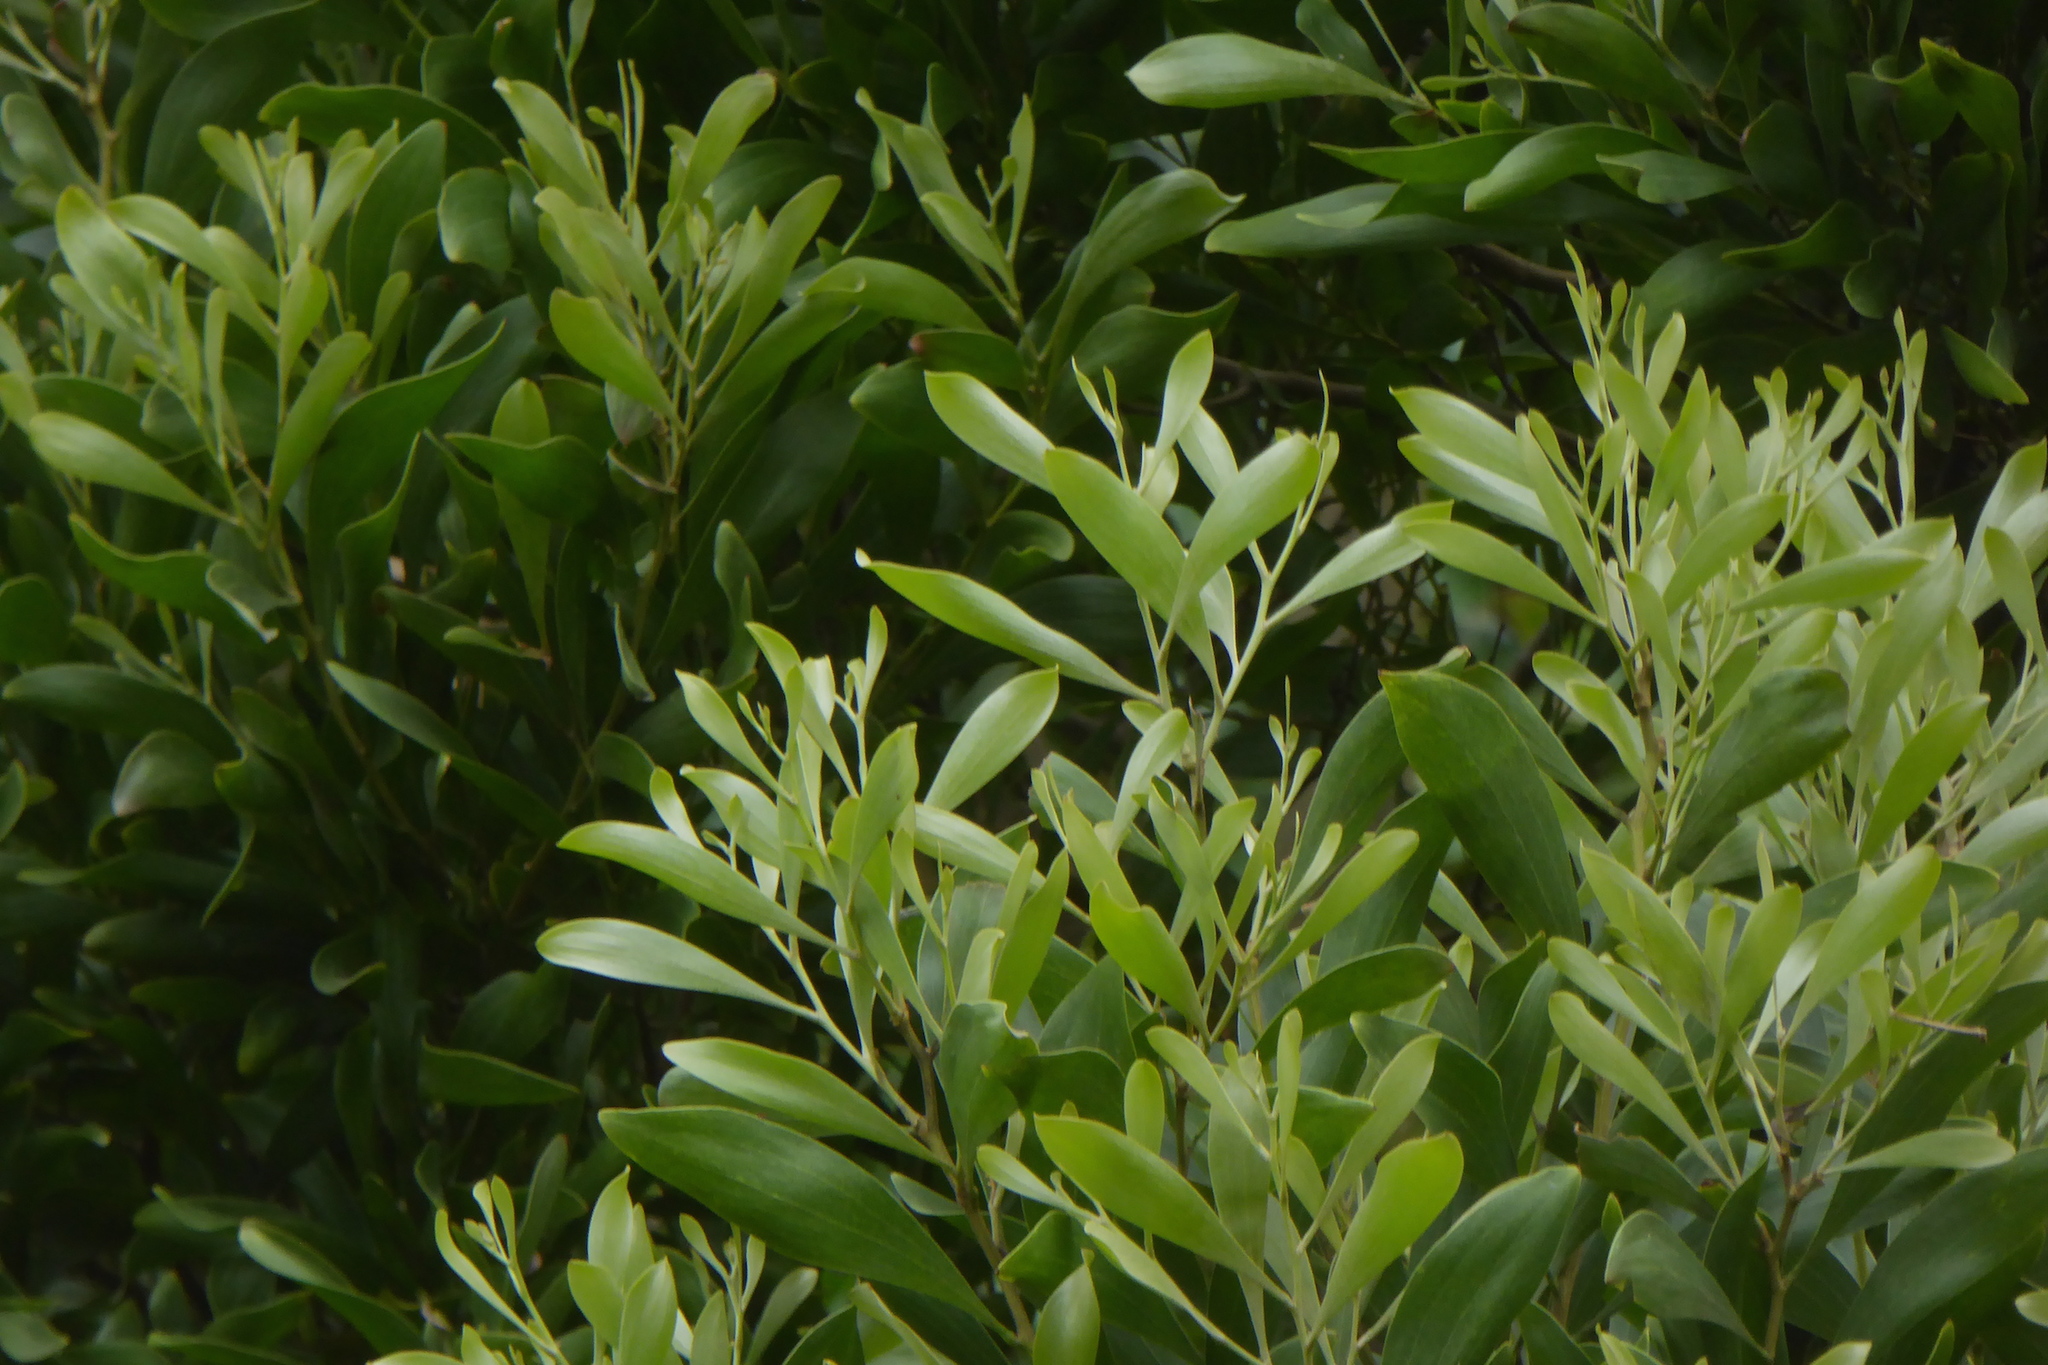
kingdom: Plantae
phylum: Tracheophyta
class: Magnoliopsida
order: Fabales
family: Fabaceae
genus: Acacia
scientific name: Acacia melanoxylon
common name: Blackwood
